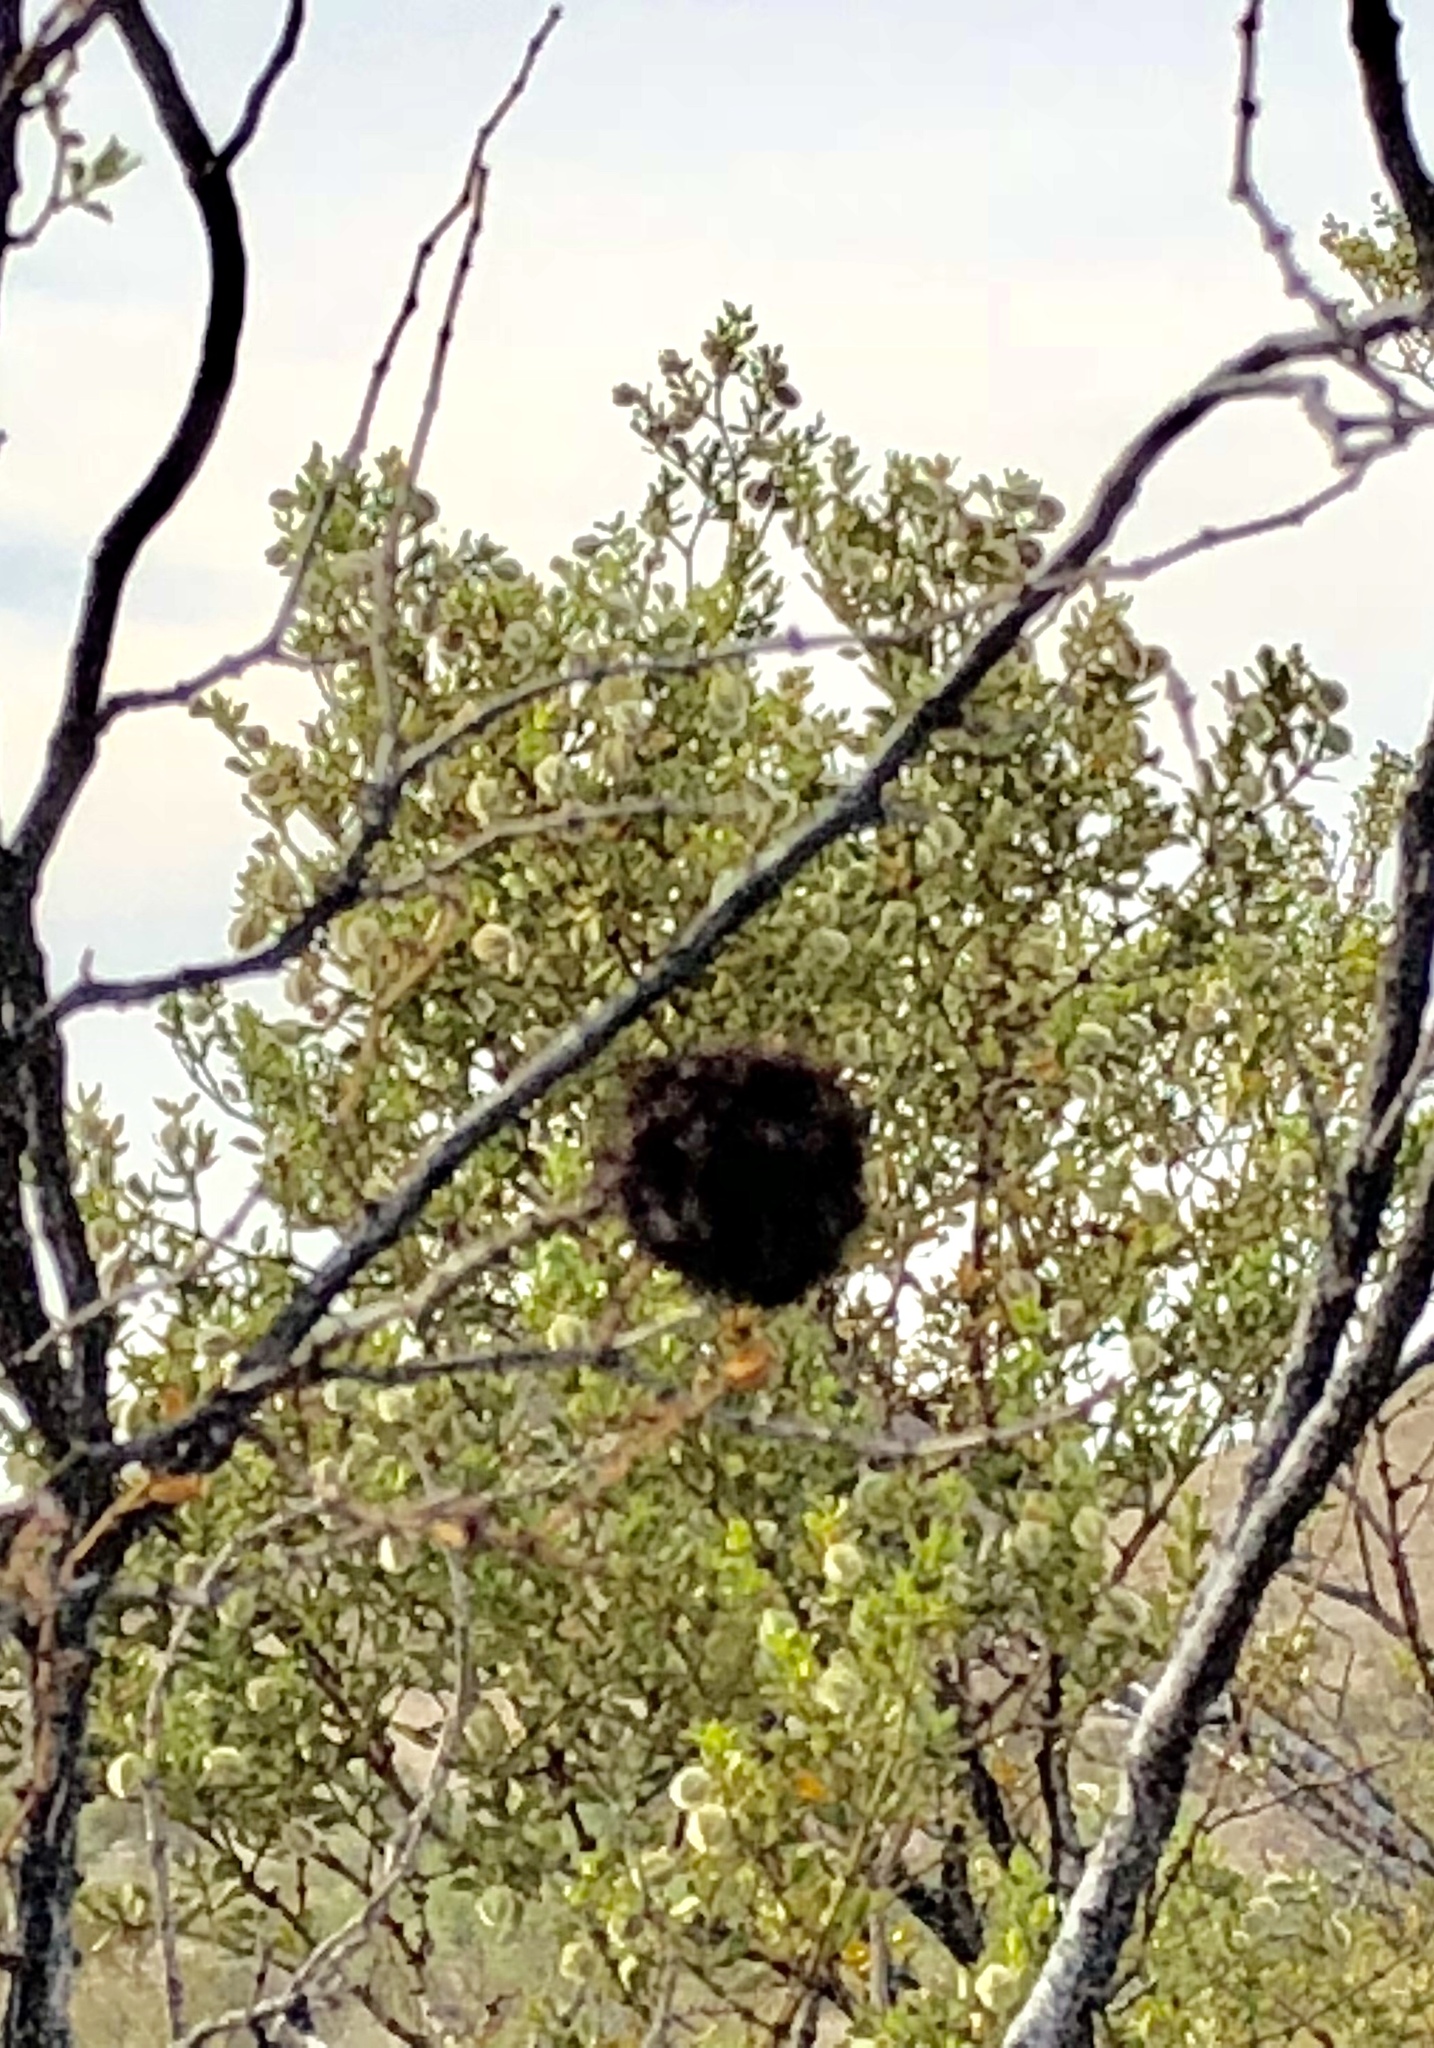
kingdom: Animalia
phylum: Arthropoda
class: Insecta
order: Diptera
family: Cecidomyiidae
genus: Asphondylia
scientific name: Asphondylia auripila
